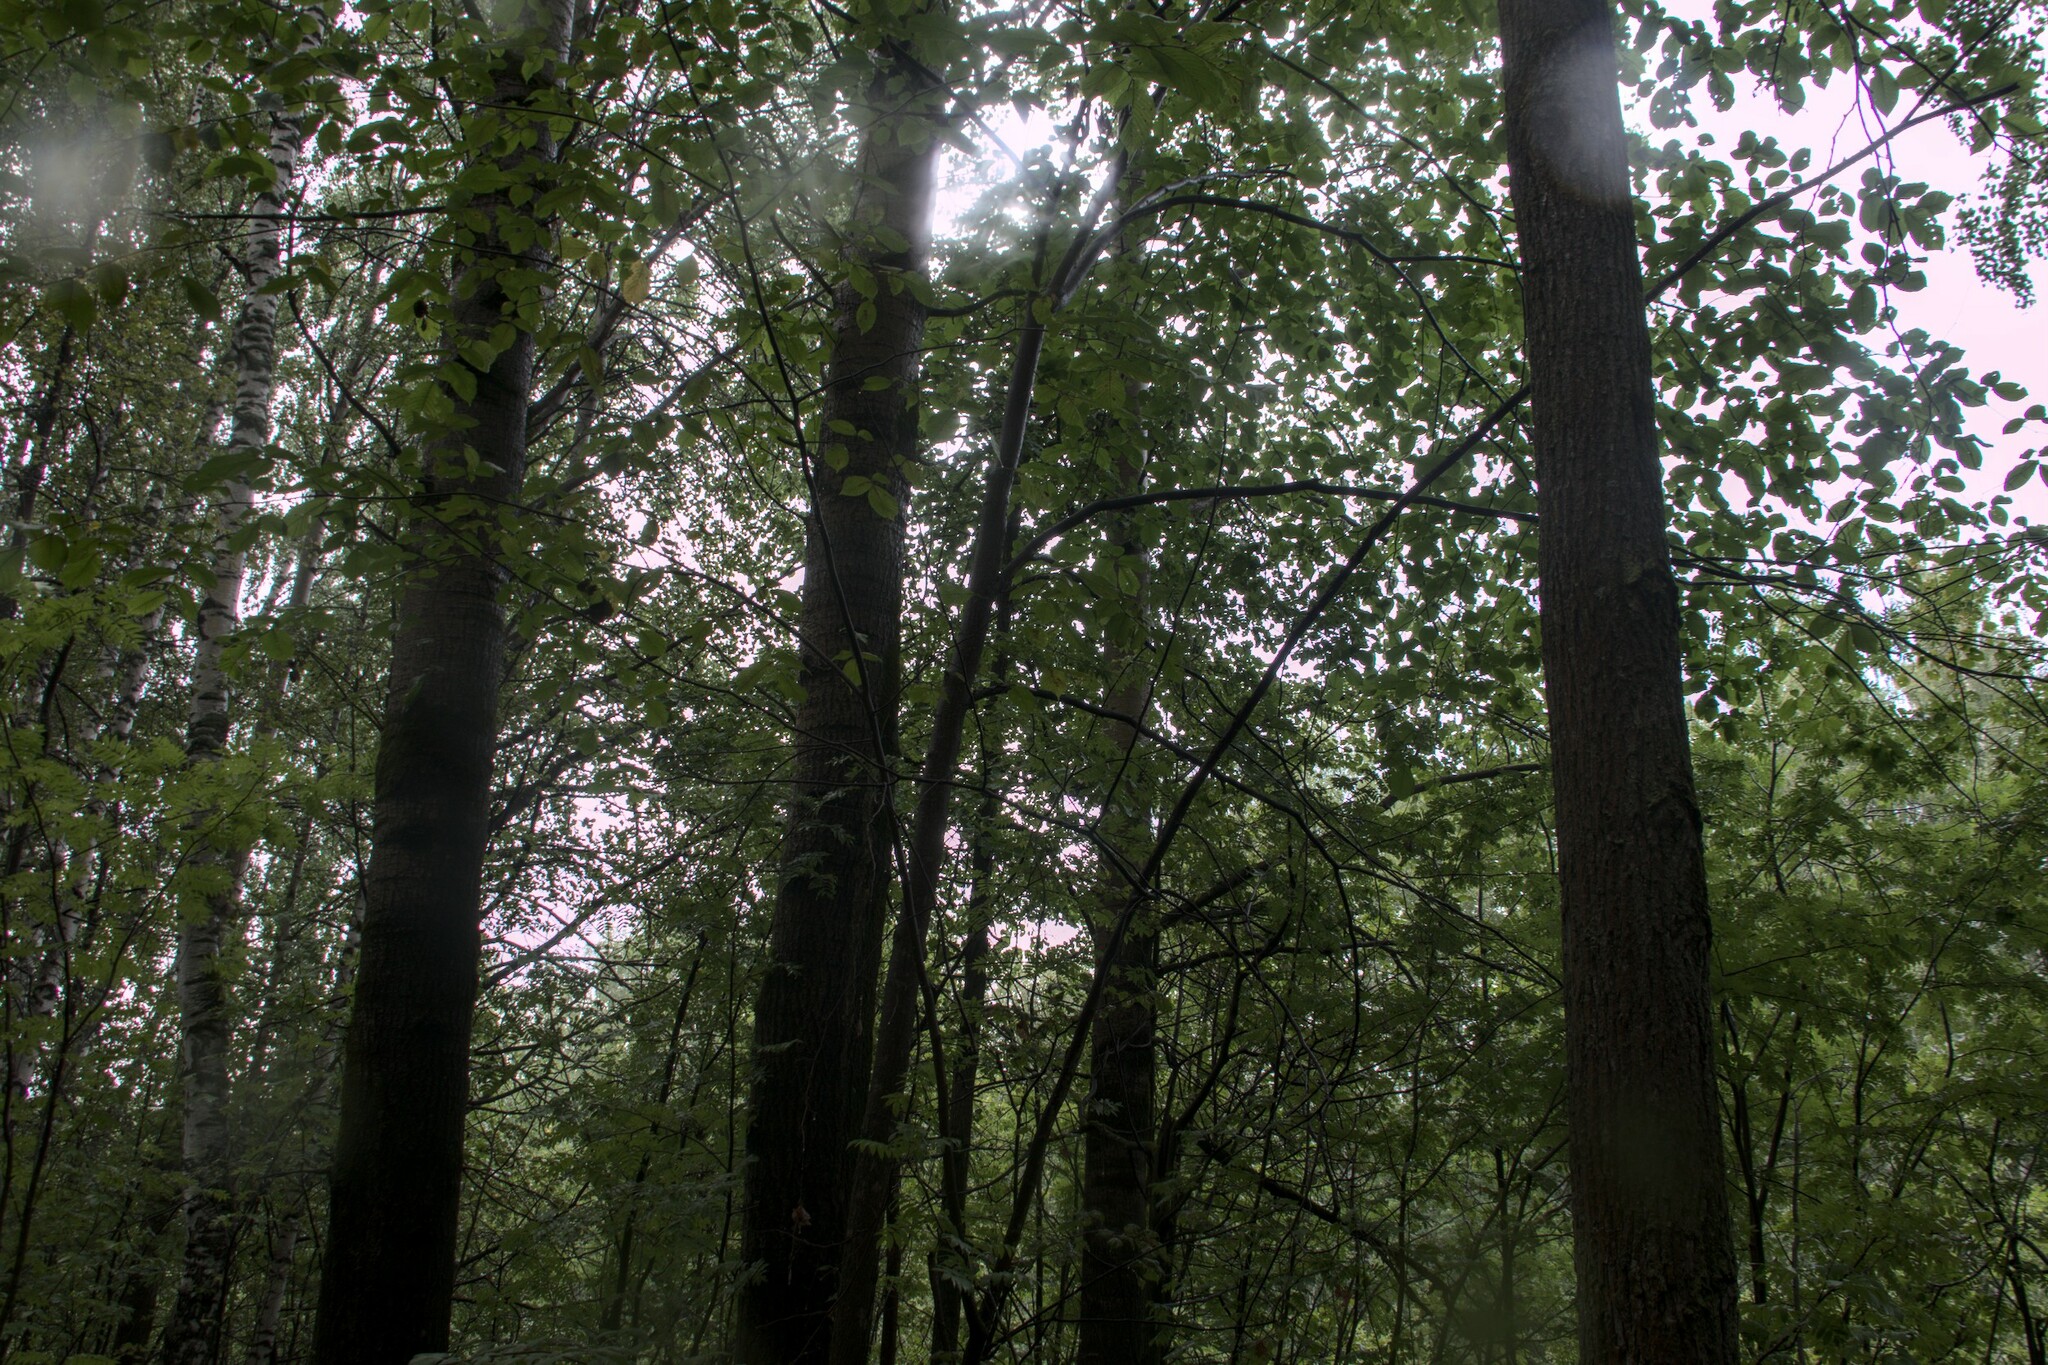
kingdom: Plantae
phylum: Tracheophyta
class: Magnoliopsida
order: Rosales
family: Ulmaceae
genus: Ulmus
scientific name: Ulmus glabra
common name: Wych elm
